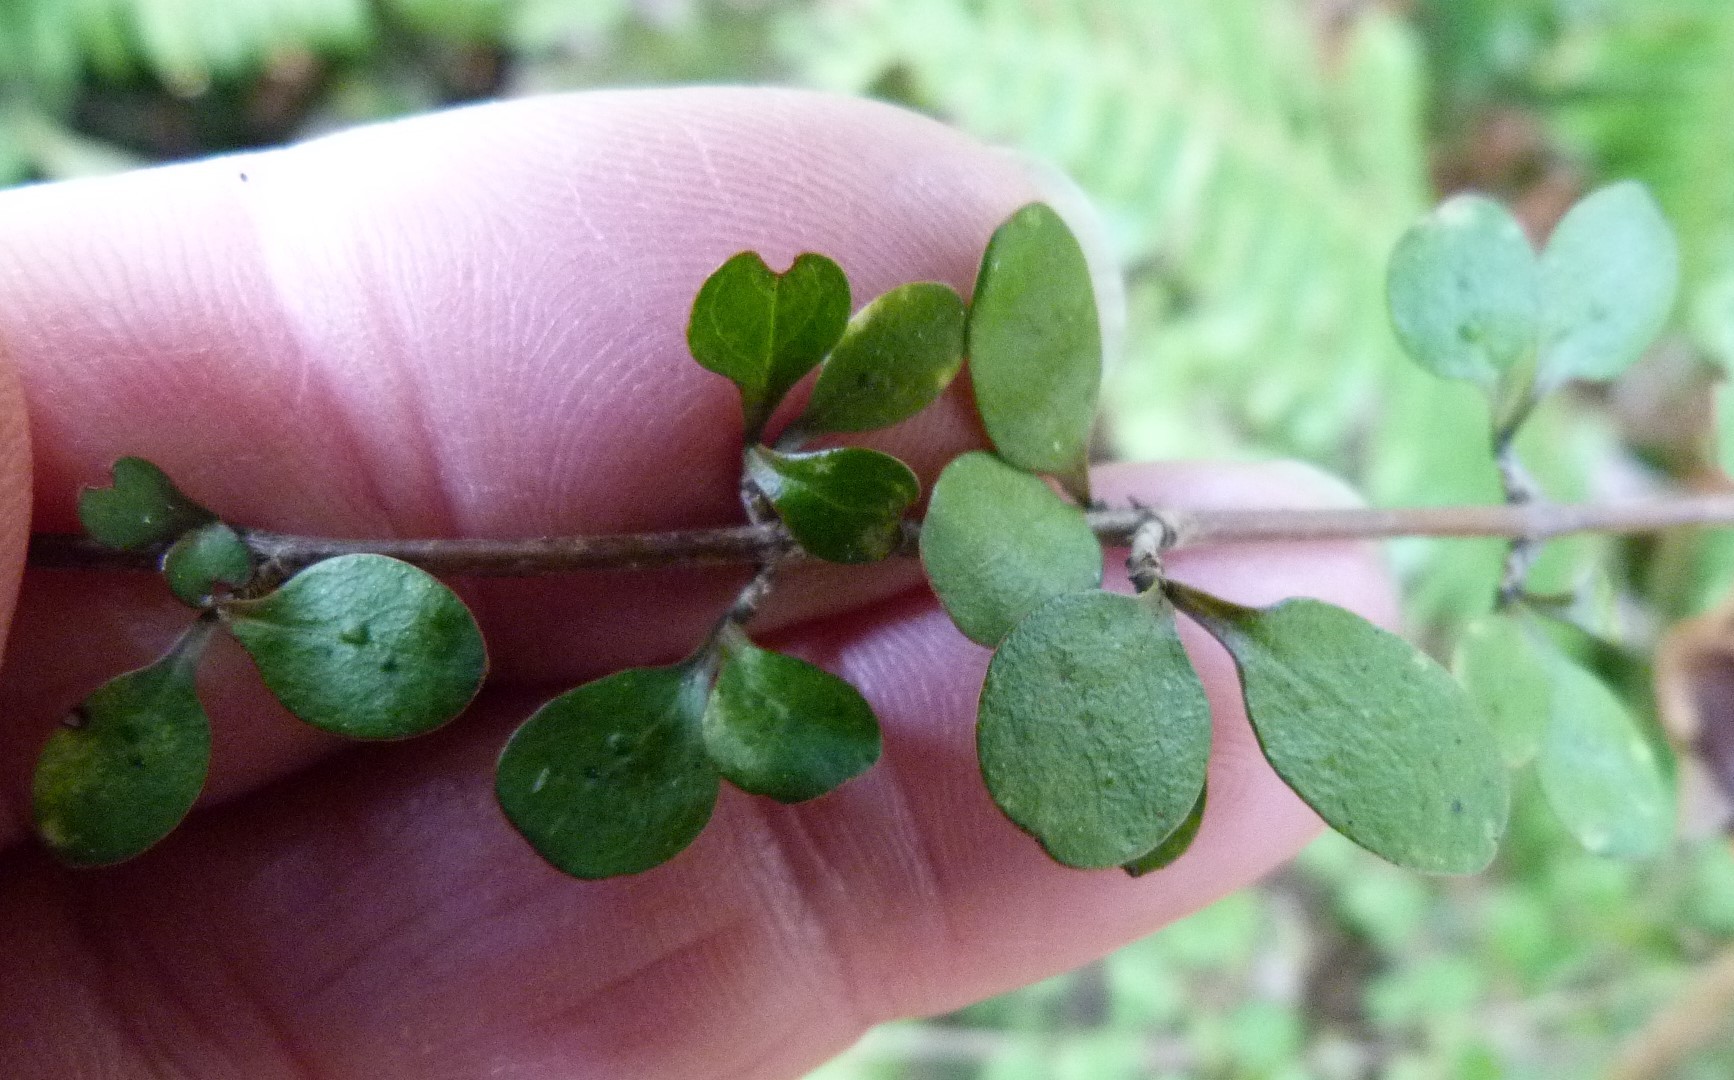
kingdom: Plantae
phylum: Tracheophyta
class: Magnoliopsida
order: Gentianales
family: Rubiaceae
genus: Coprosma
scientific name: Coprosma rigida
